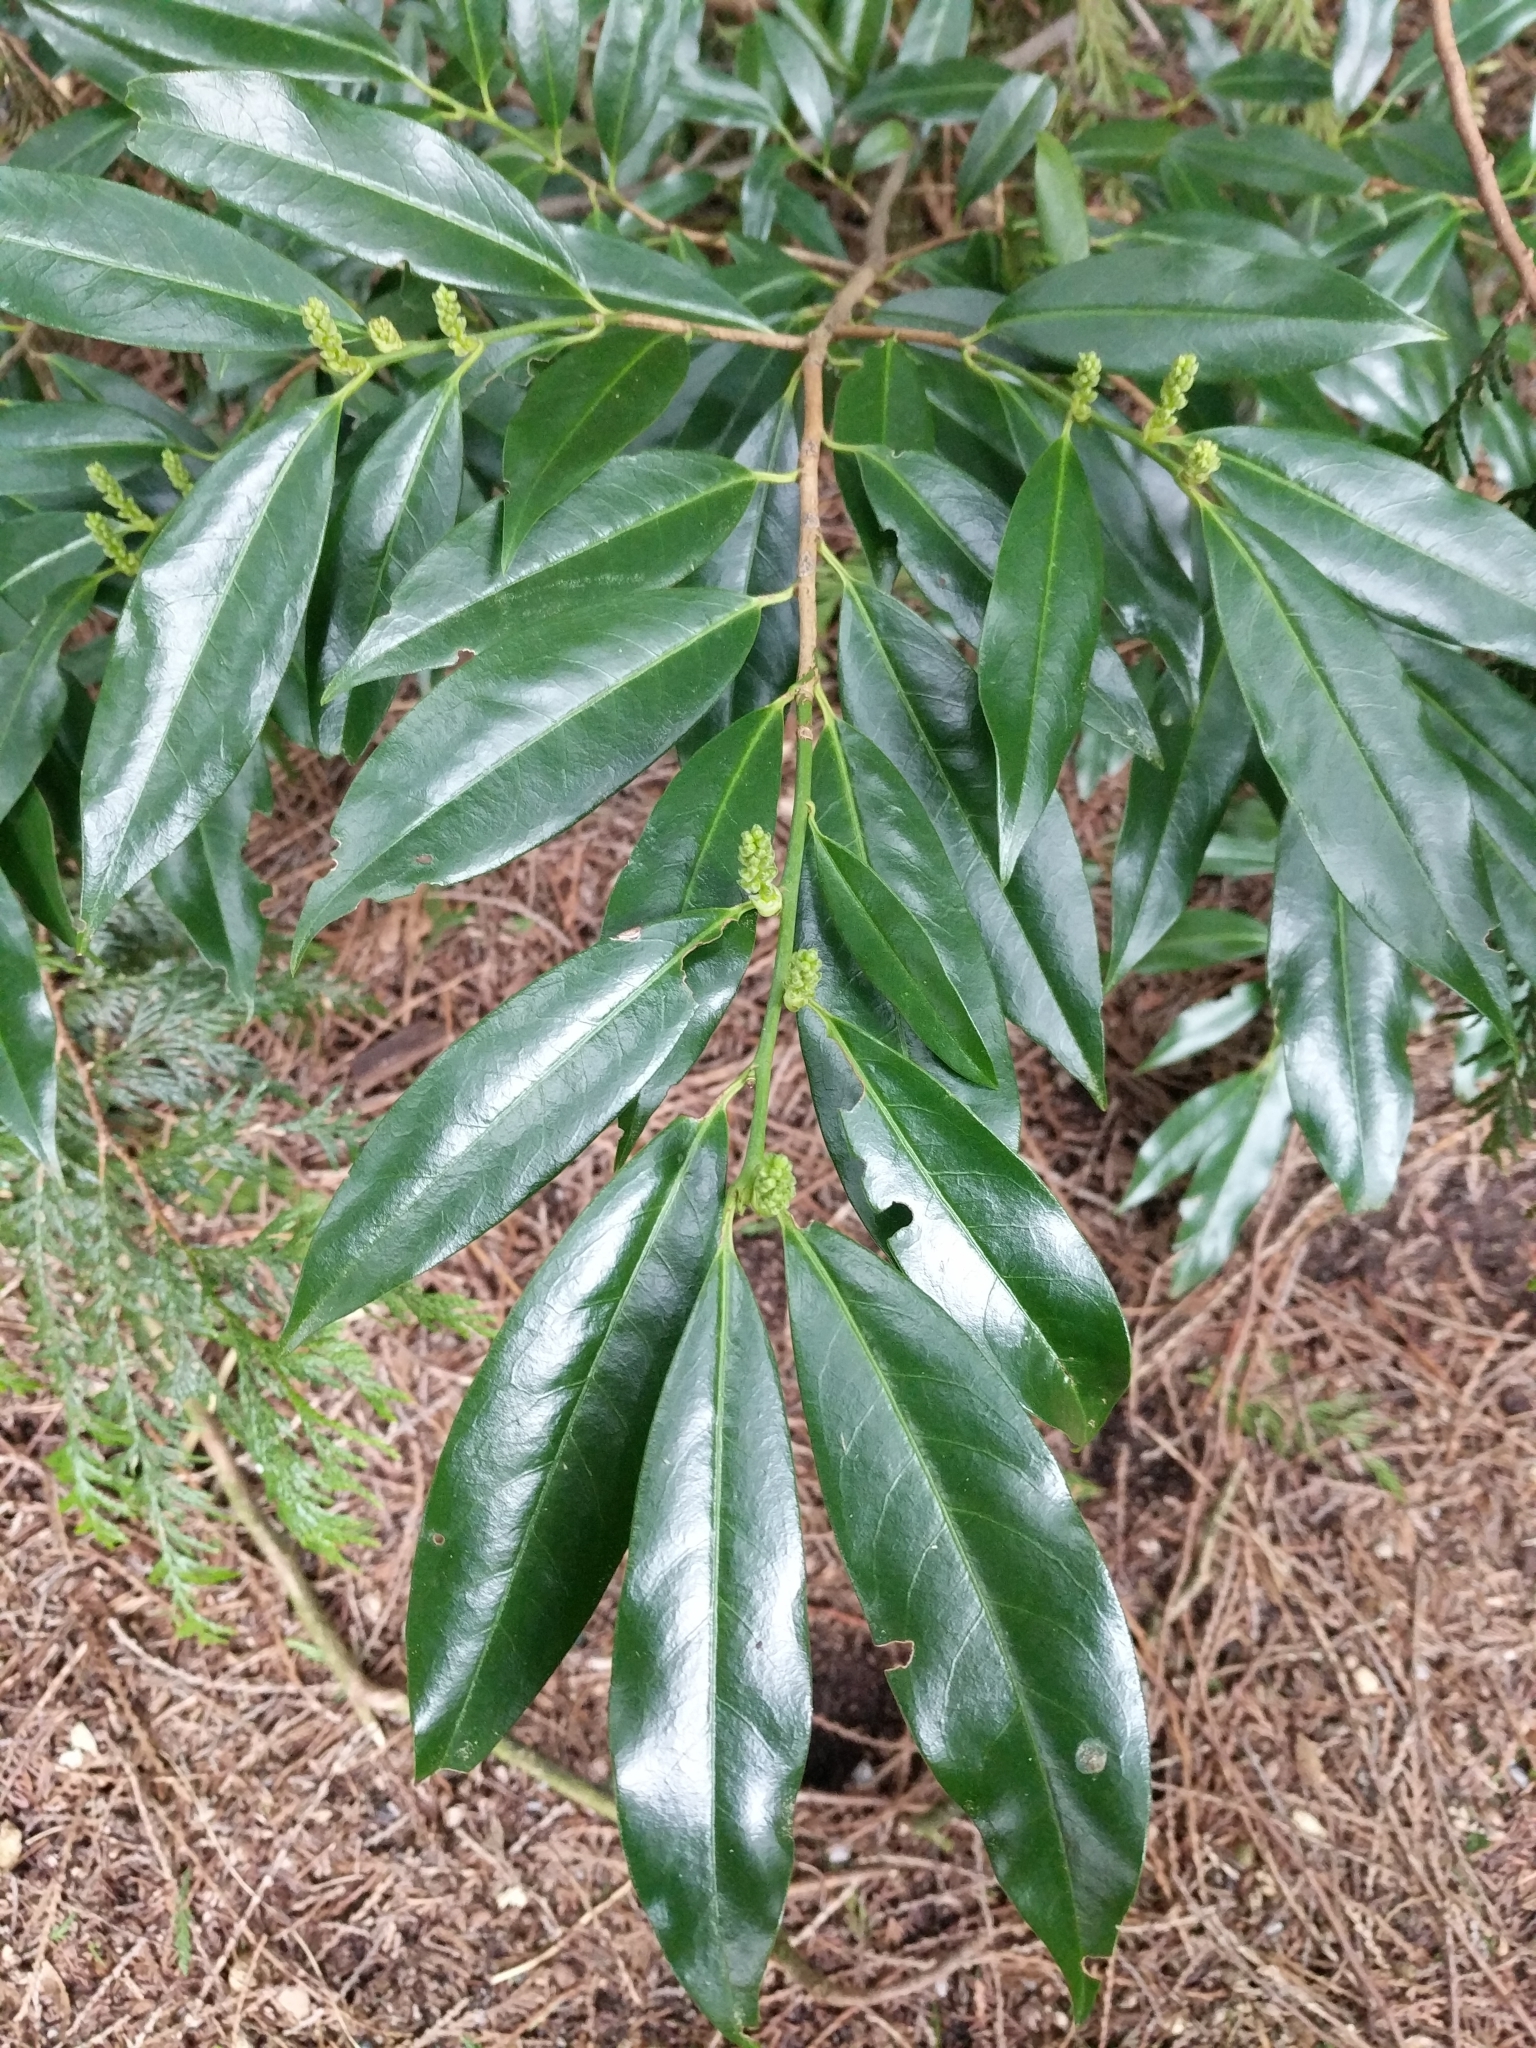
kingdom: Plantae
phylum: Tracheophyta
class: Magnoliopsida
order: Rosales
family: Rosaceae
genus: Prunus
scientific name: Prunus laurocerasus
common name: Cherry laurel
